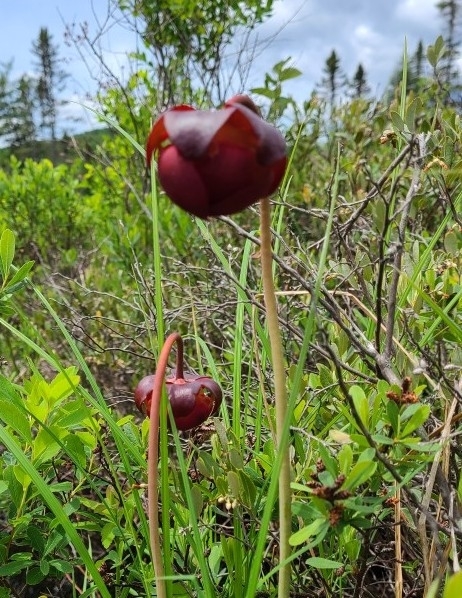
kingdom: Plantae
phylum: Tracheophyta
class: Magnoliopsida
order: Ericales
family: Sarraceniaceae
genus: Sarracenia
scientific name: Sarracenia purpurea
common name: Pitcherplant
